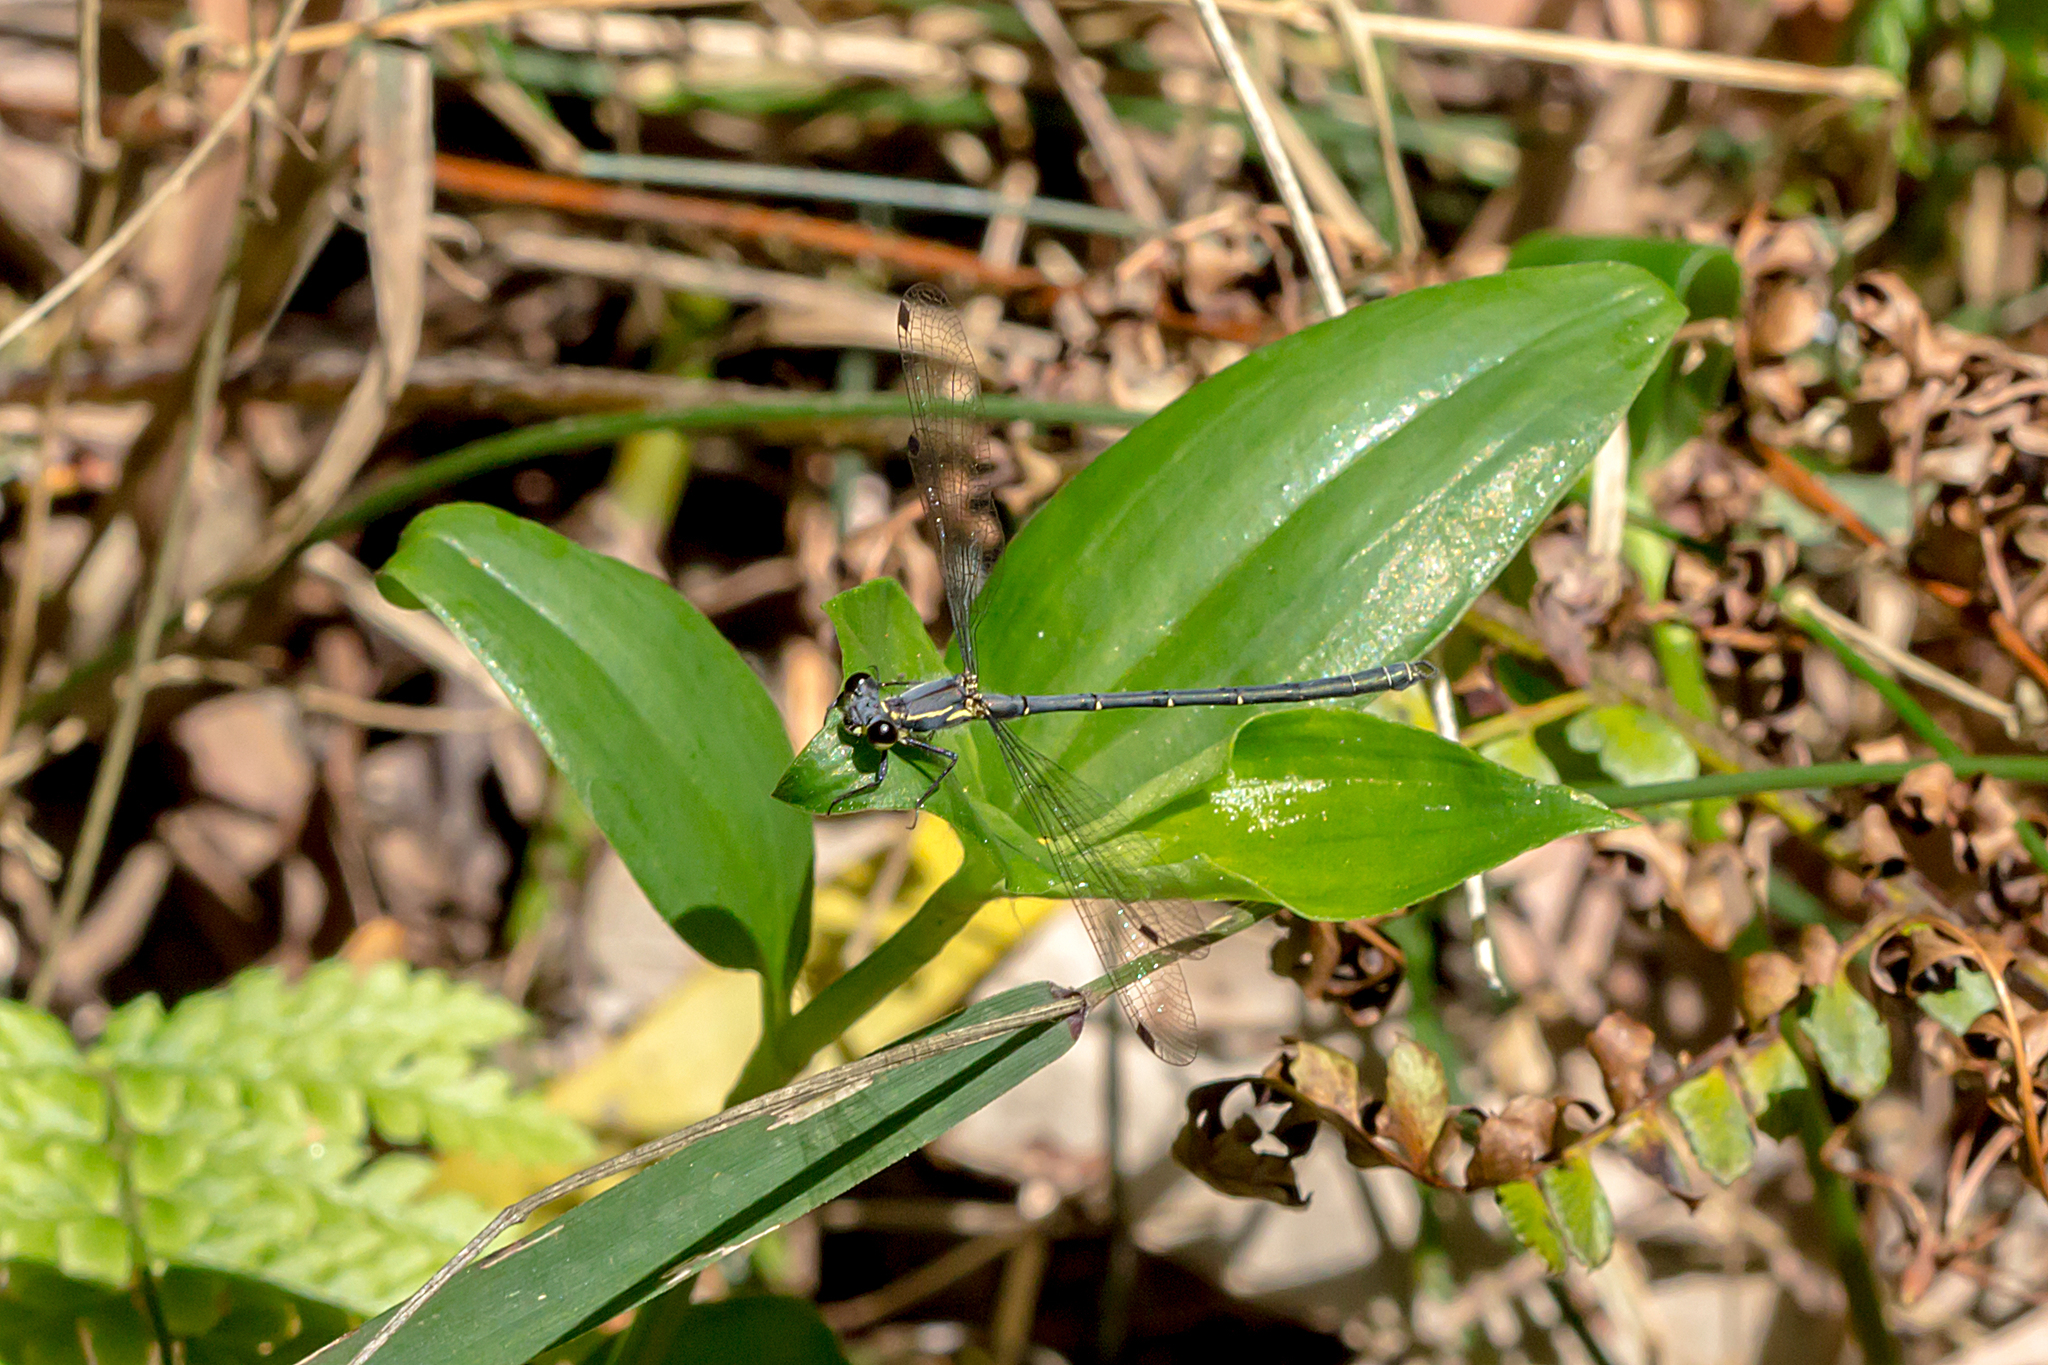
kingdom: Animalia
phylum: Arthropoda
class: Insecta
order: Odonata
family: Argiolestidae
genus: Griseargiolestes
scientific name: Griseargiolestes intermedius
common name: Alpine flatwing
